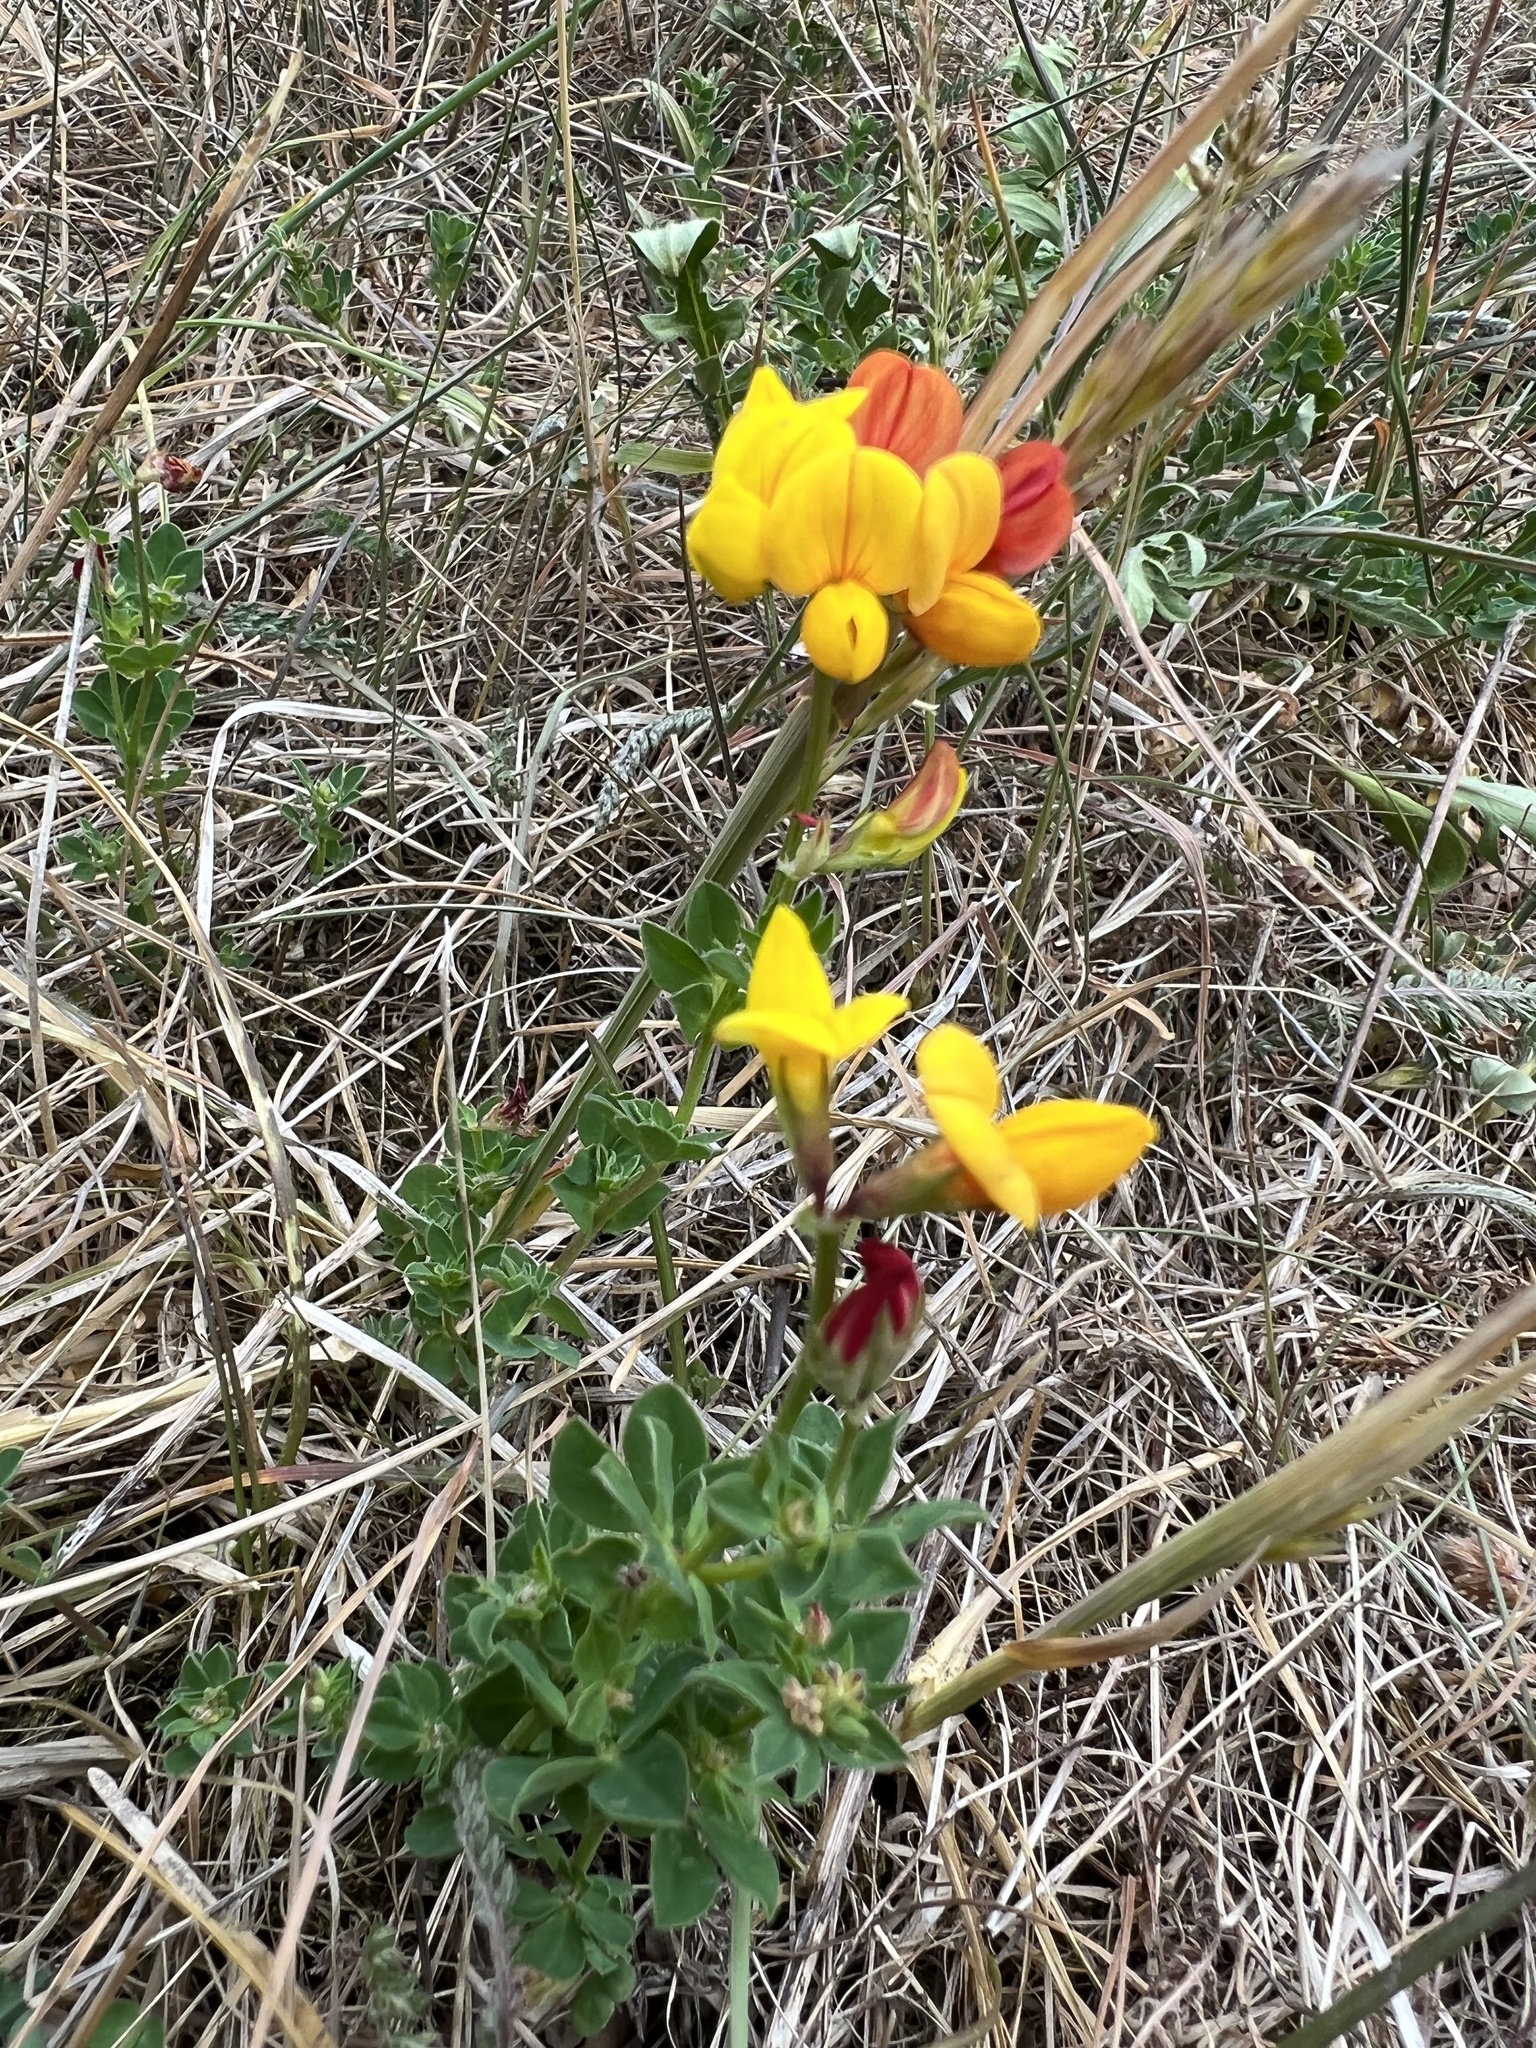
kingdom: Plantae
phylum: Tracheophyta
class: Magnoliopsida
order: Fabales
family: Fabaceae
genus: Lotus
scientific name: Lotus corniculatus
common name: Common bird's-foot-trefoil
